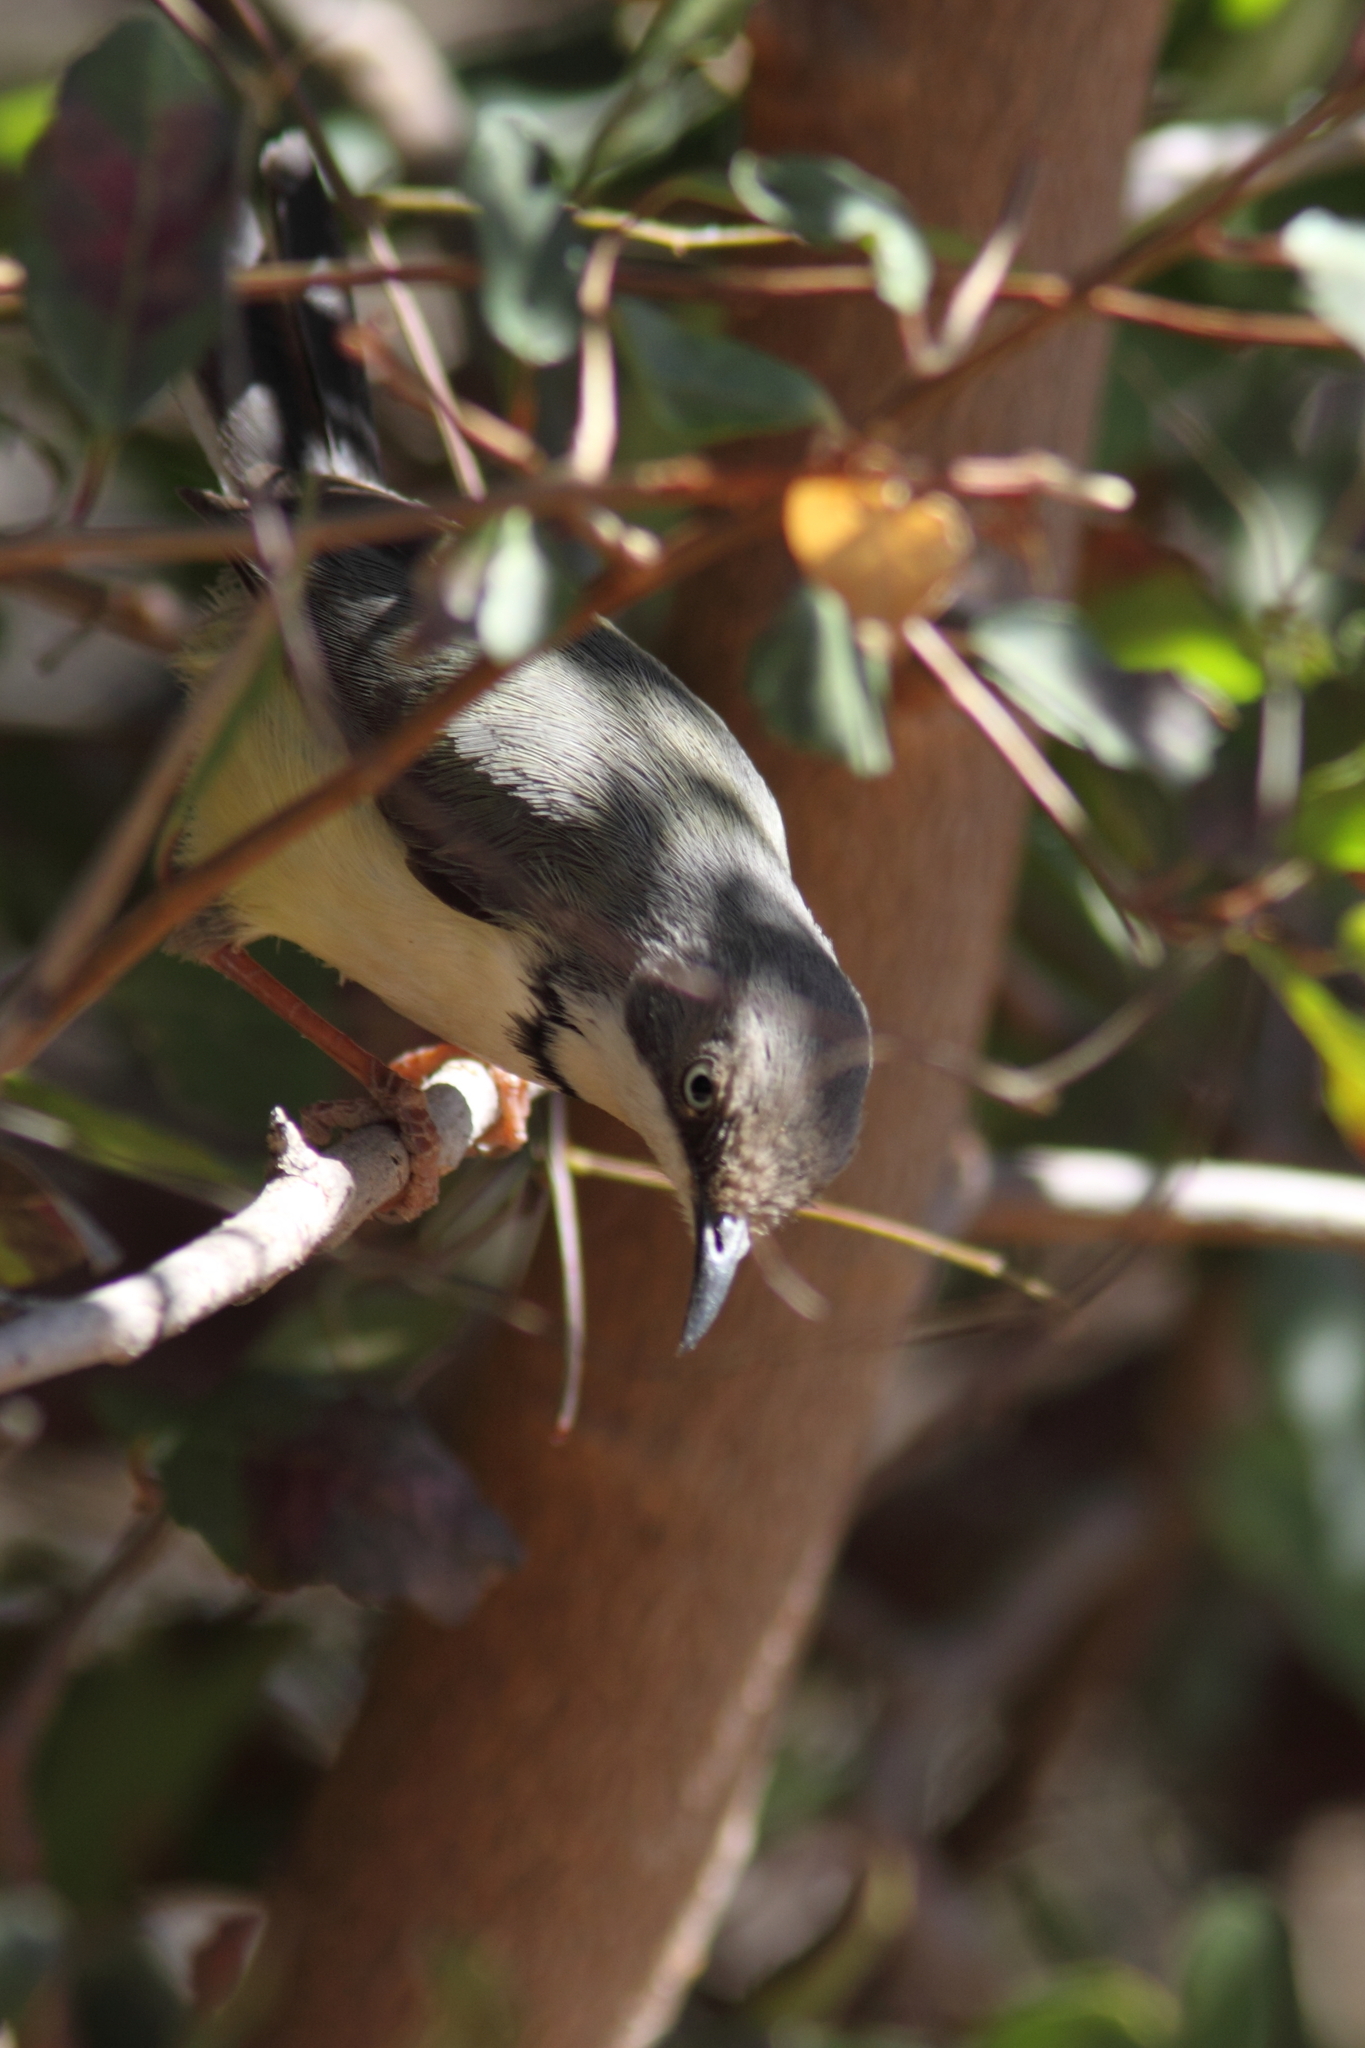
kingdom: Animalia
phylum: Chordata
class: Aves
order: Passeriformes
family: Cisticolidae
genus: Apalis
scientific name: Apalis thoracica
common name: Bar-throated apalis
